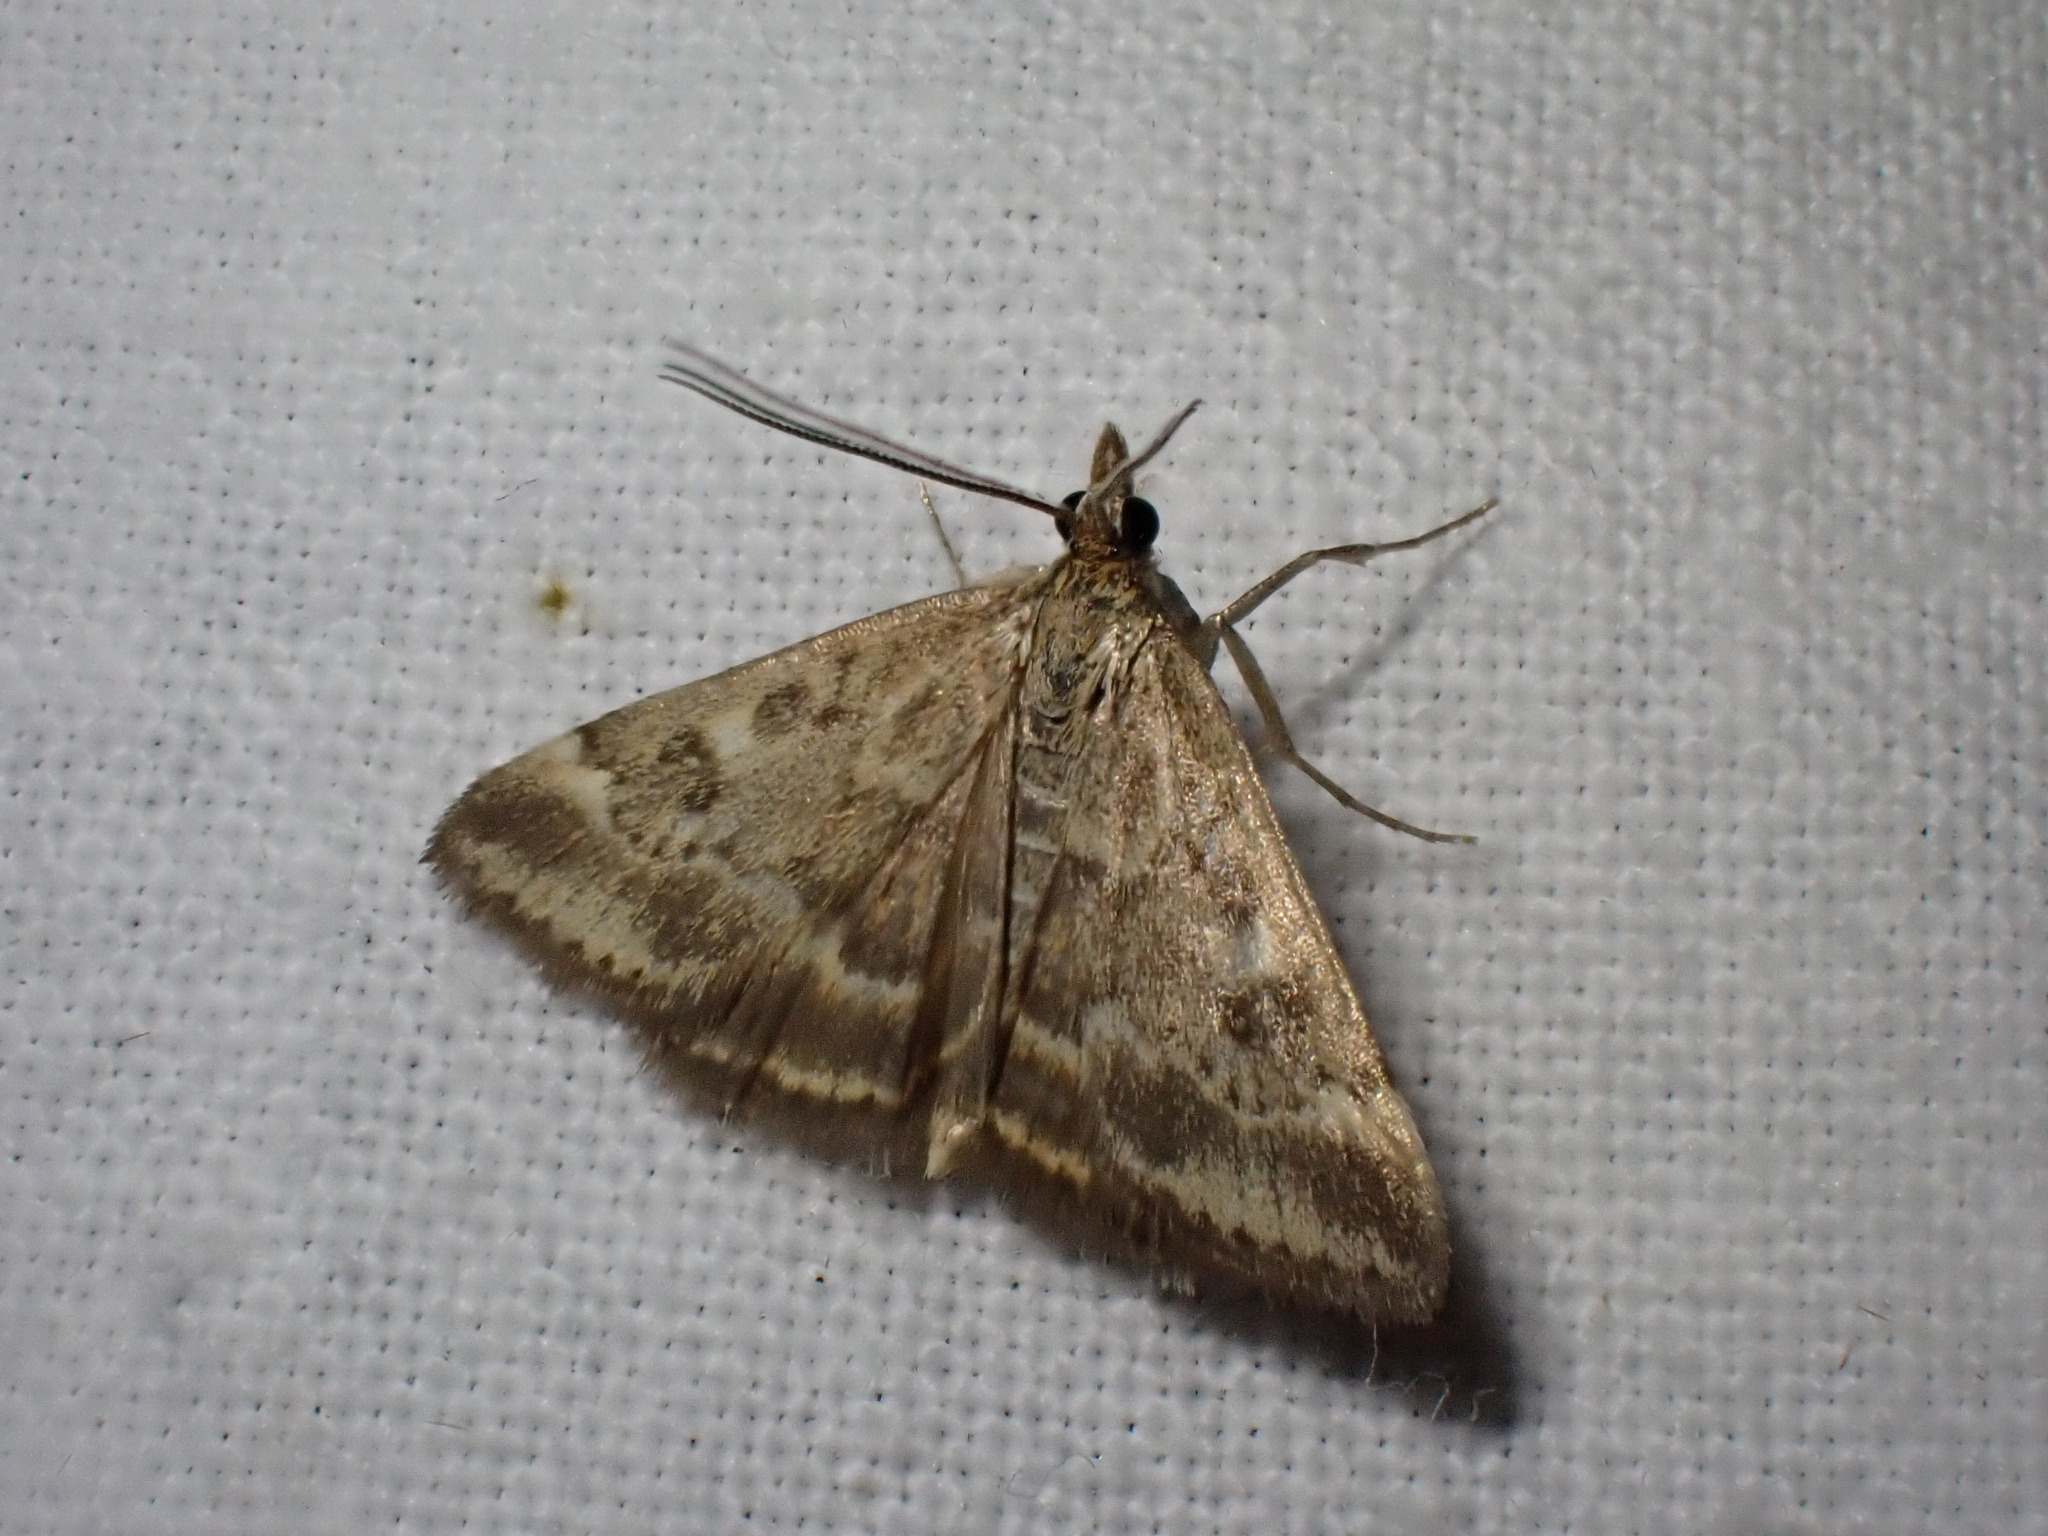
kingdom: Animalia
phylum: Arthropoda
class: Insecta
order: Lepidoptera
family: Crambidae
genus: Pyrausta
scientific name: Pyrausta despicata
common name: Straw-barred pearl
